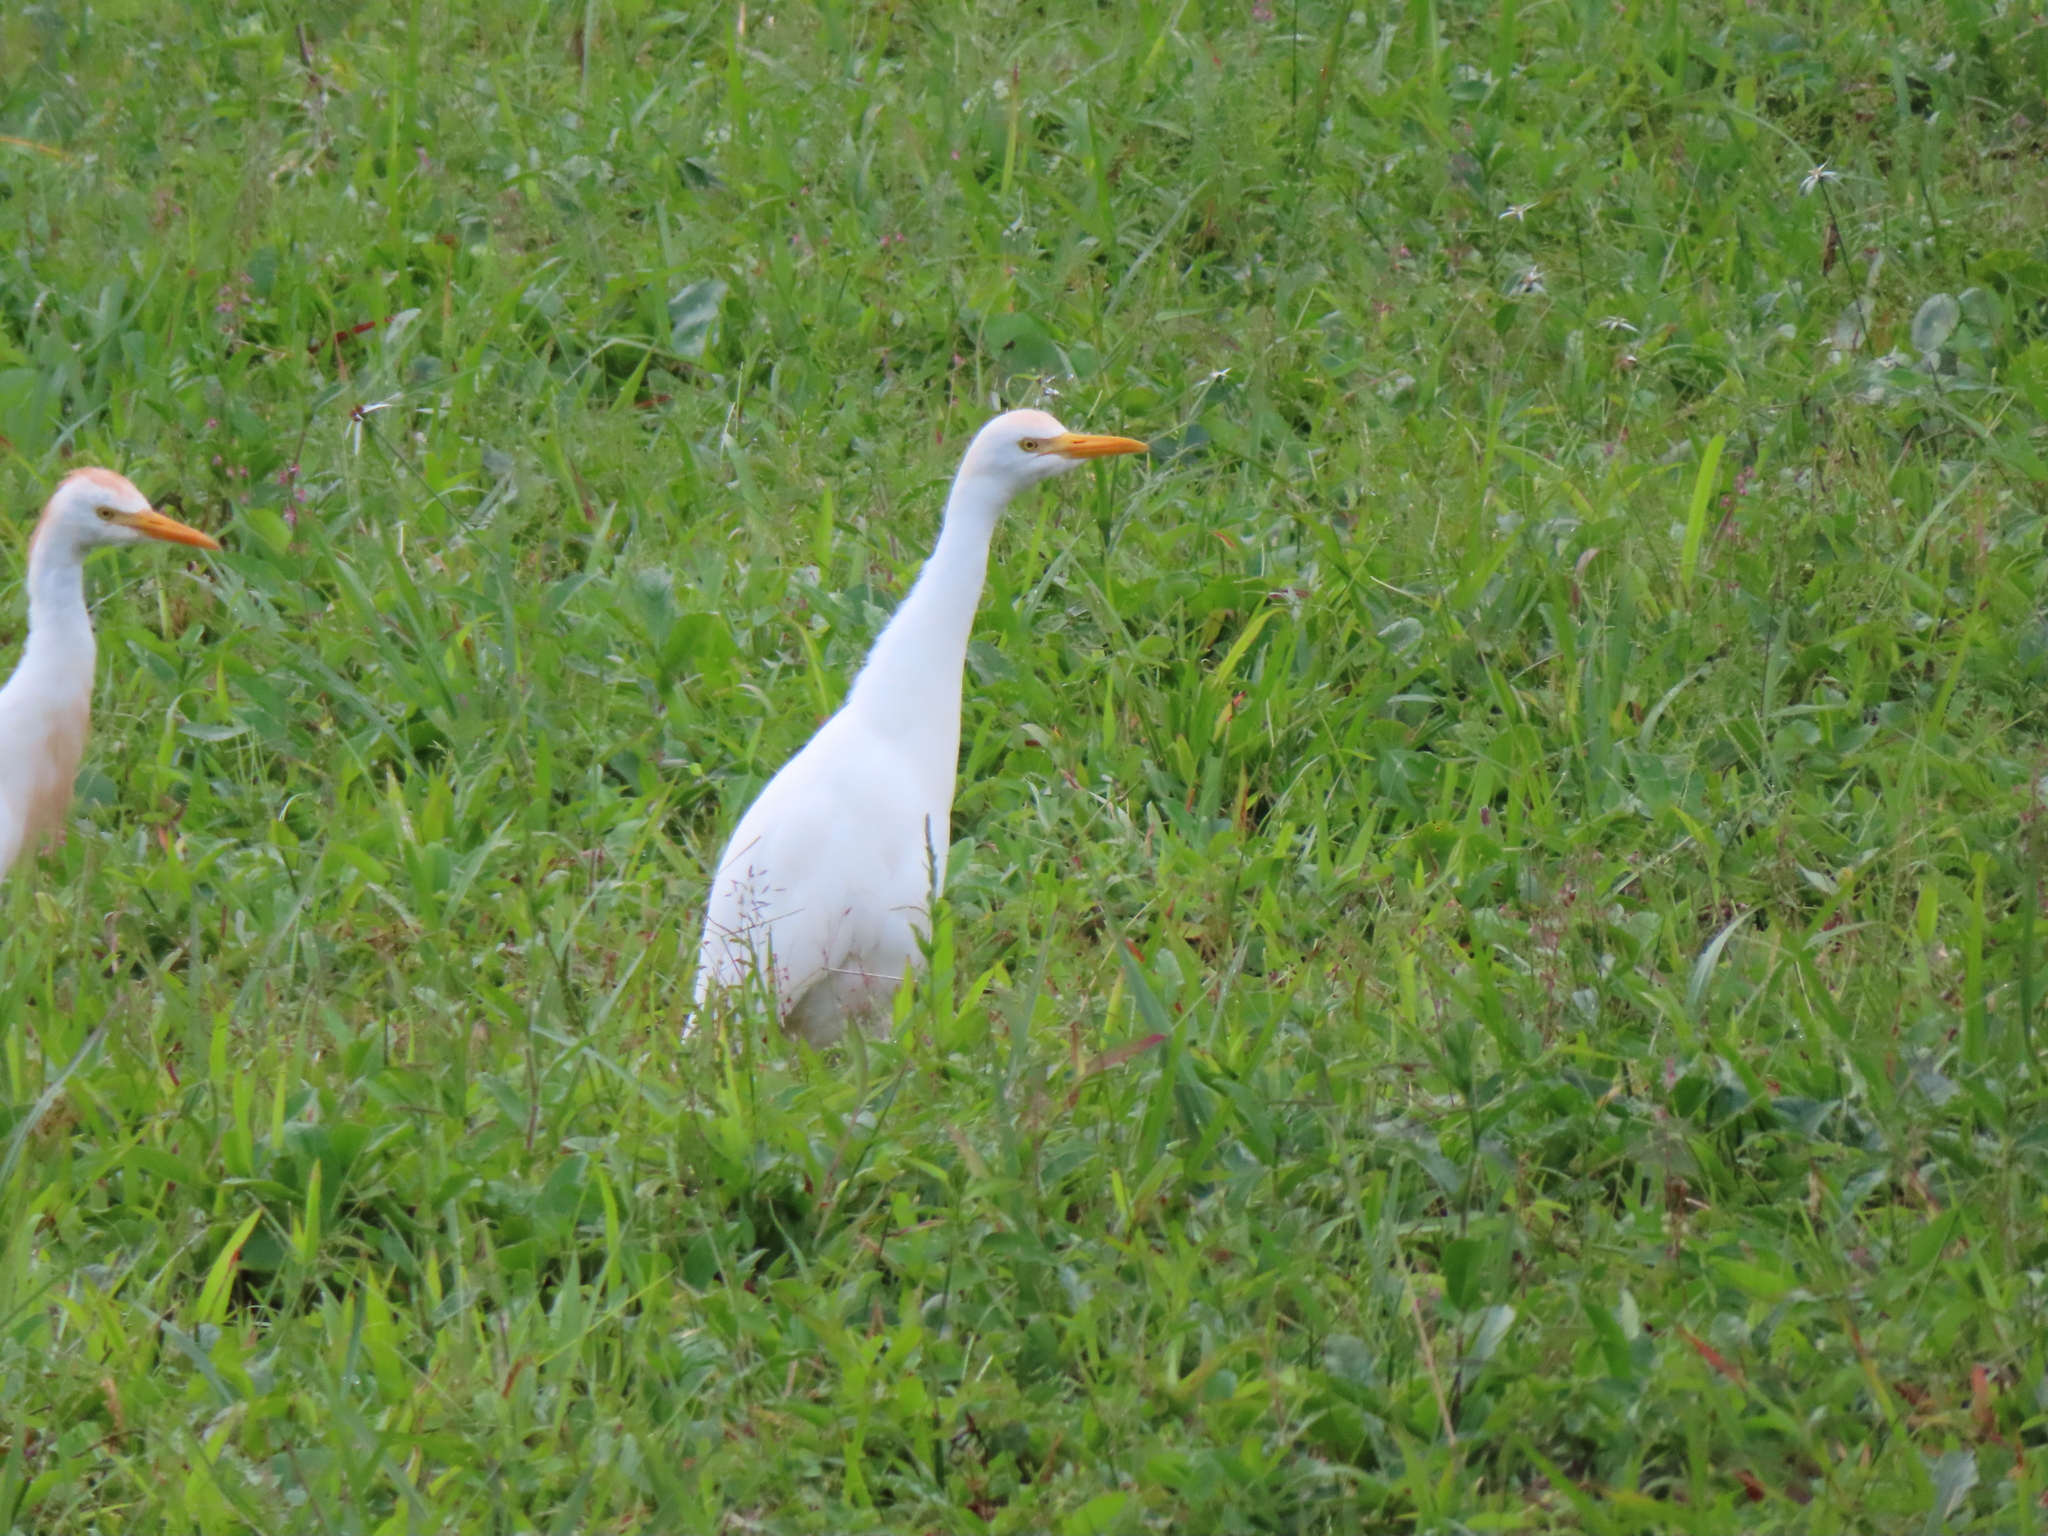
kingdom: Animalia
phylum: Chordata
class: Aves
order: Pelecaniformes
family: Ardeidae
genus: Bubulcus
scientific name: Bubulcus ibis
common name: Cattle egret
